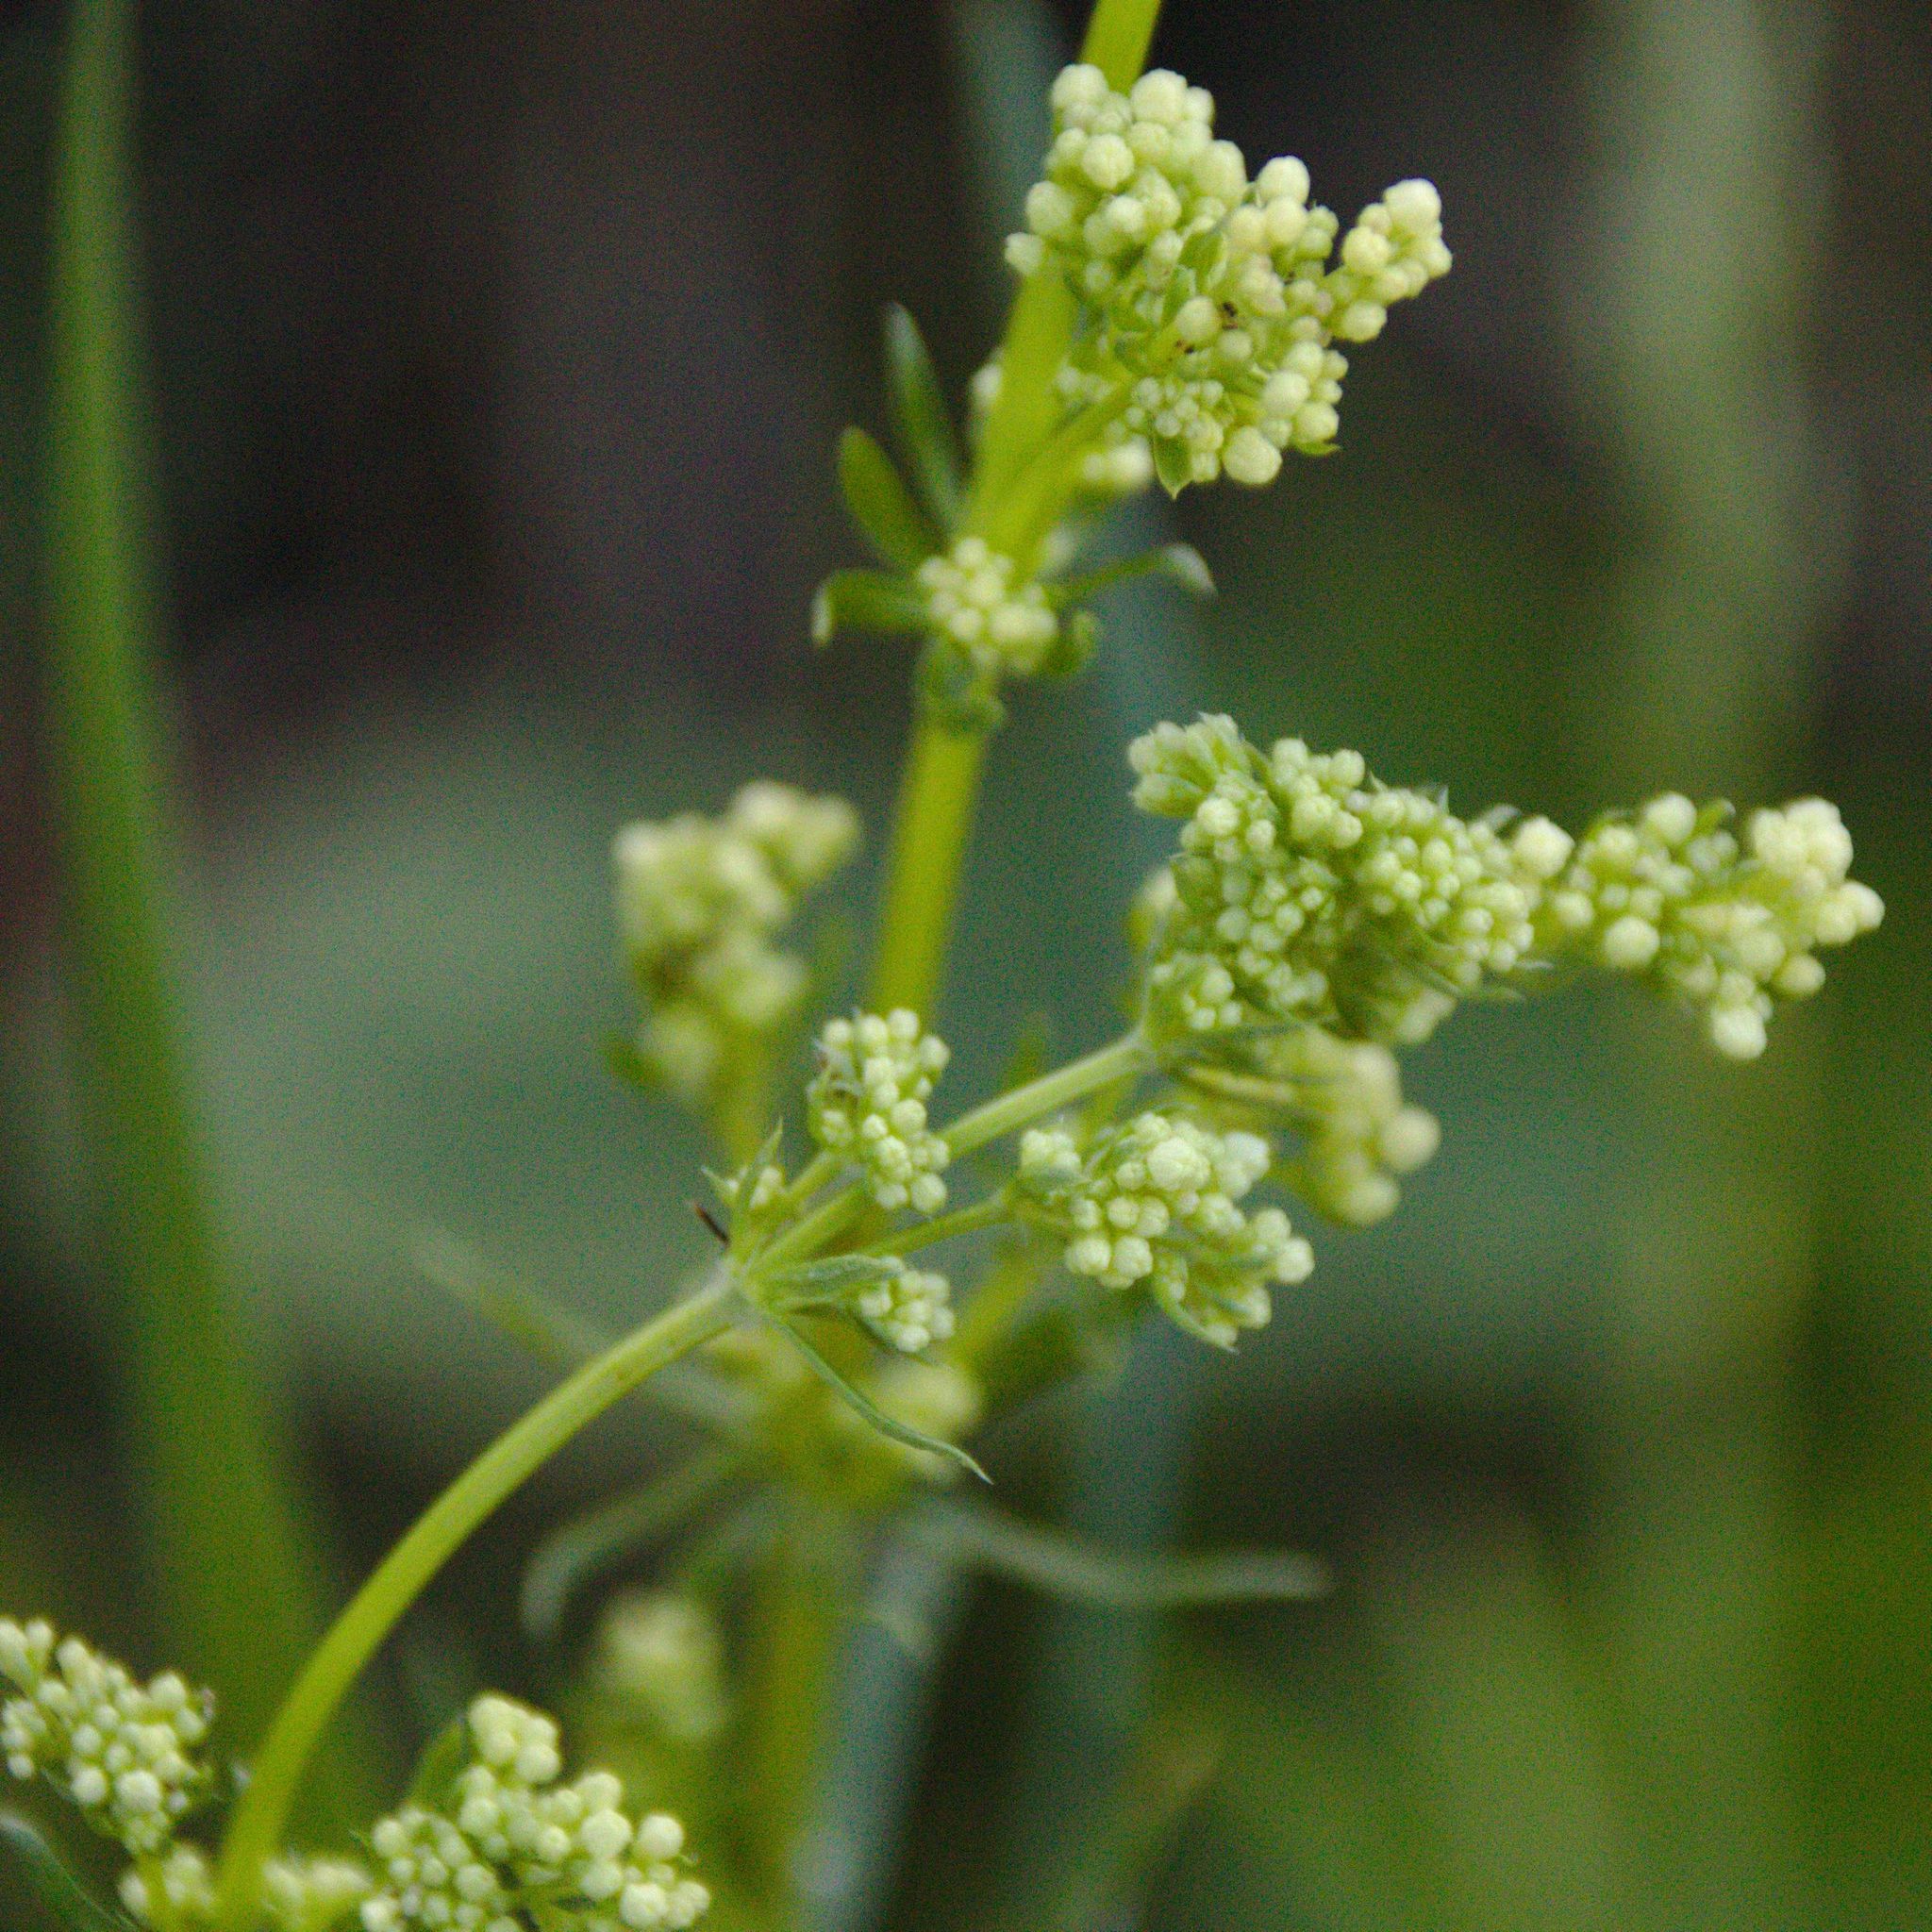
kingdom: Plantae
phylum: Tracheophyta
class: Magnoliopsida
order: Gentianales
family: Rubiaceae
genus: Galium
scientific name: Galium mollugo
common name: Hedge bedstraw
